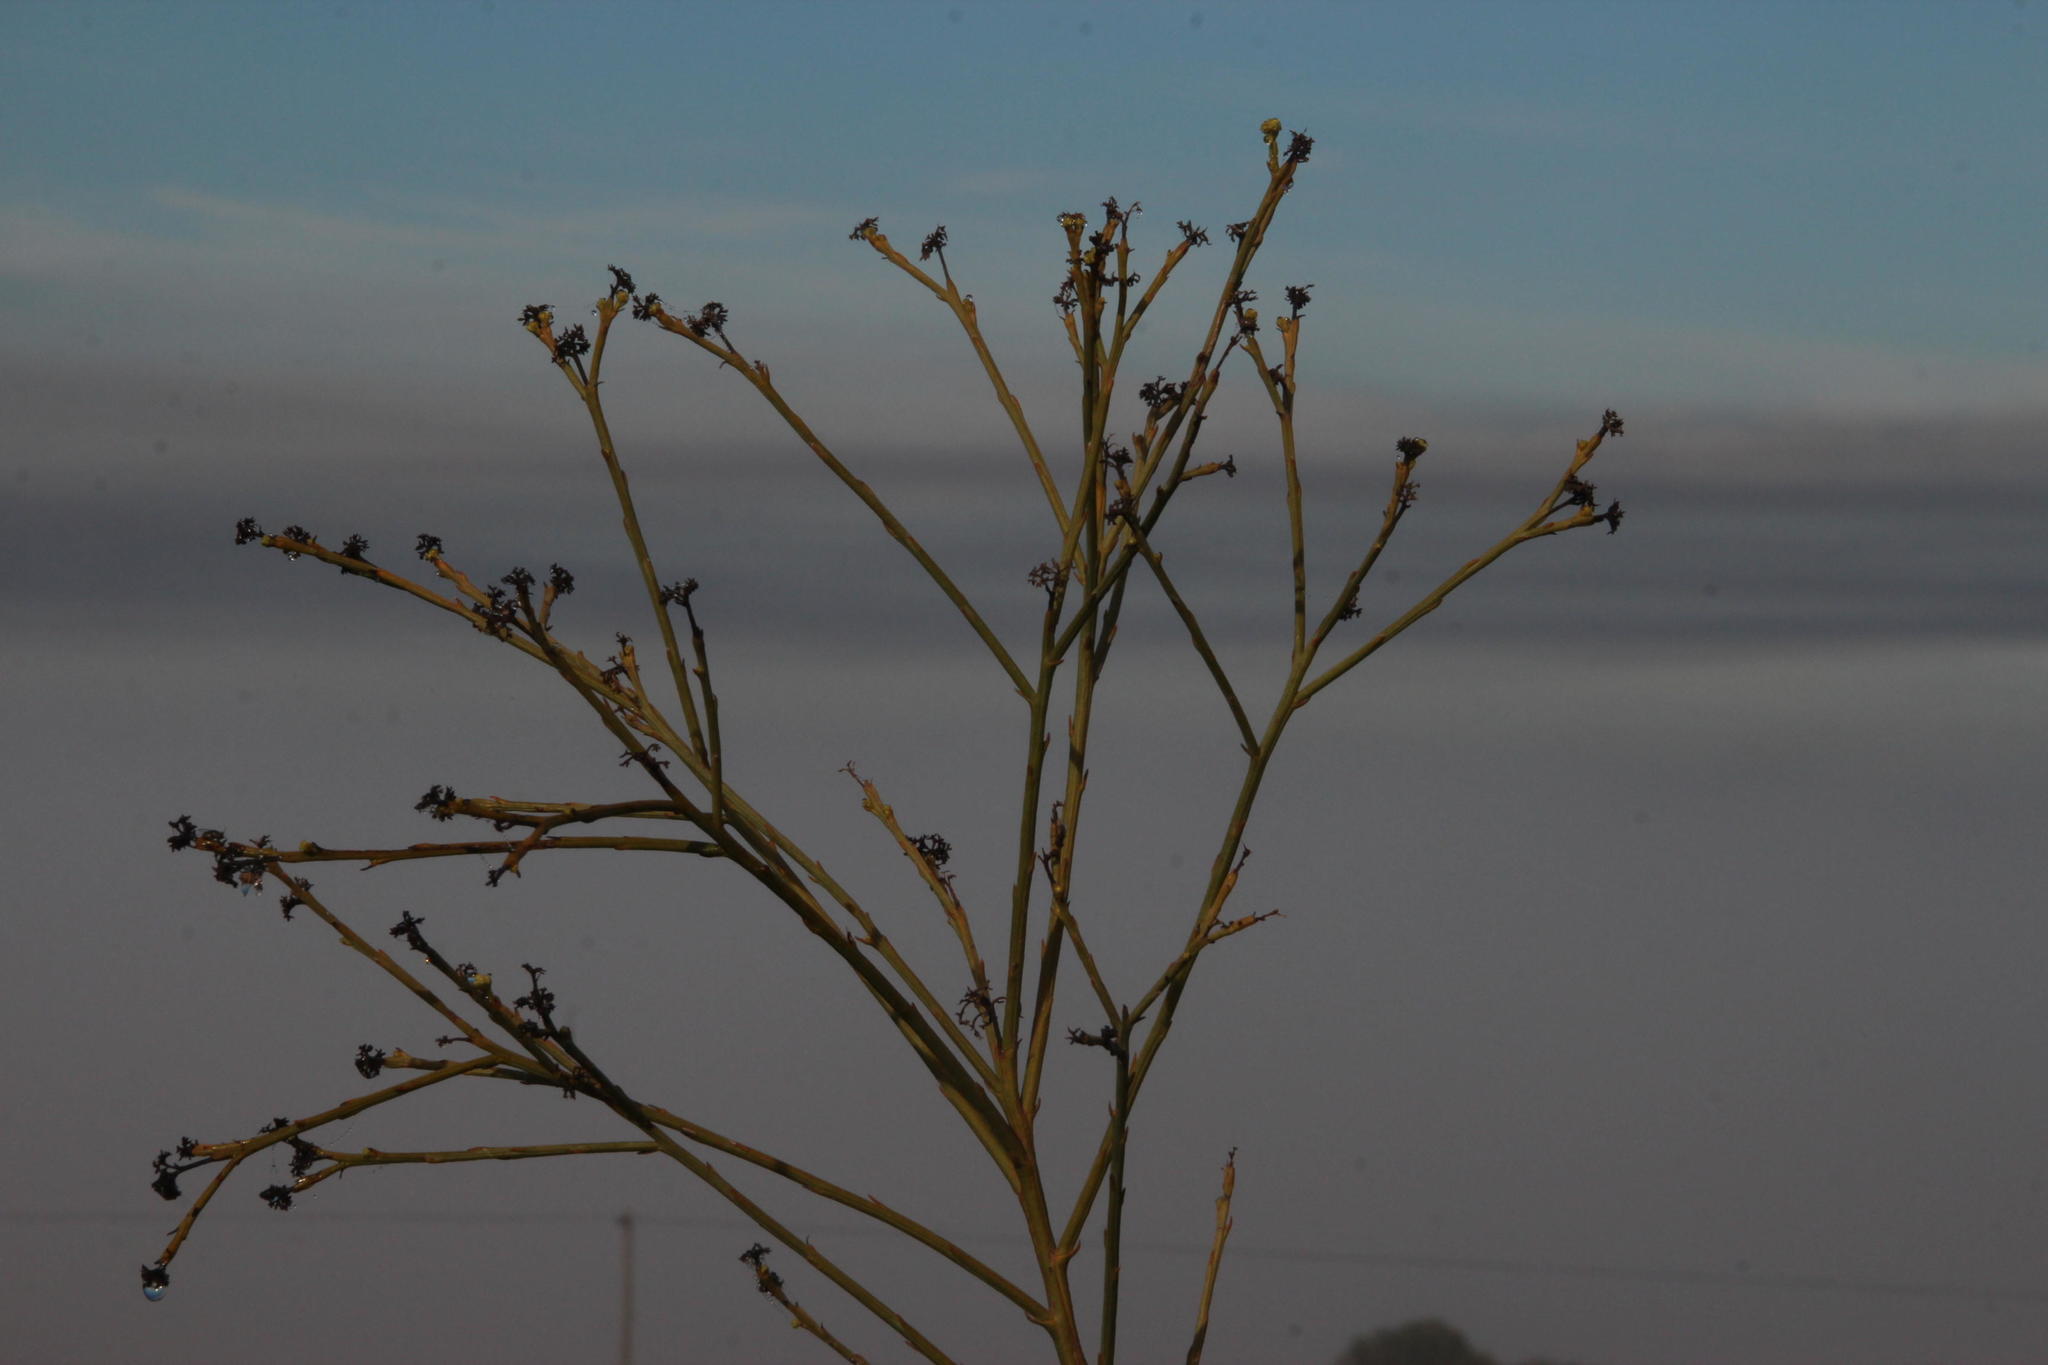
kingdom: Plantae
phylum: Tracheophyta
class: Magnoliopsida
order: Santalales
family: Thesiaceae
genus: Thesium
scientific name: Thesium strictum
